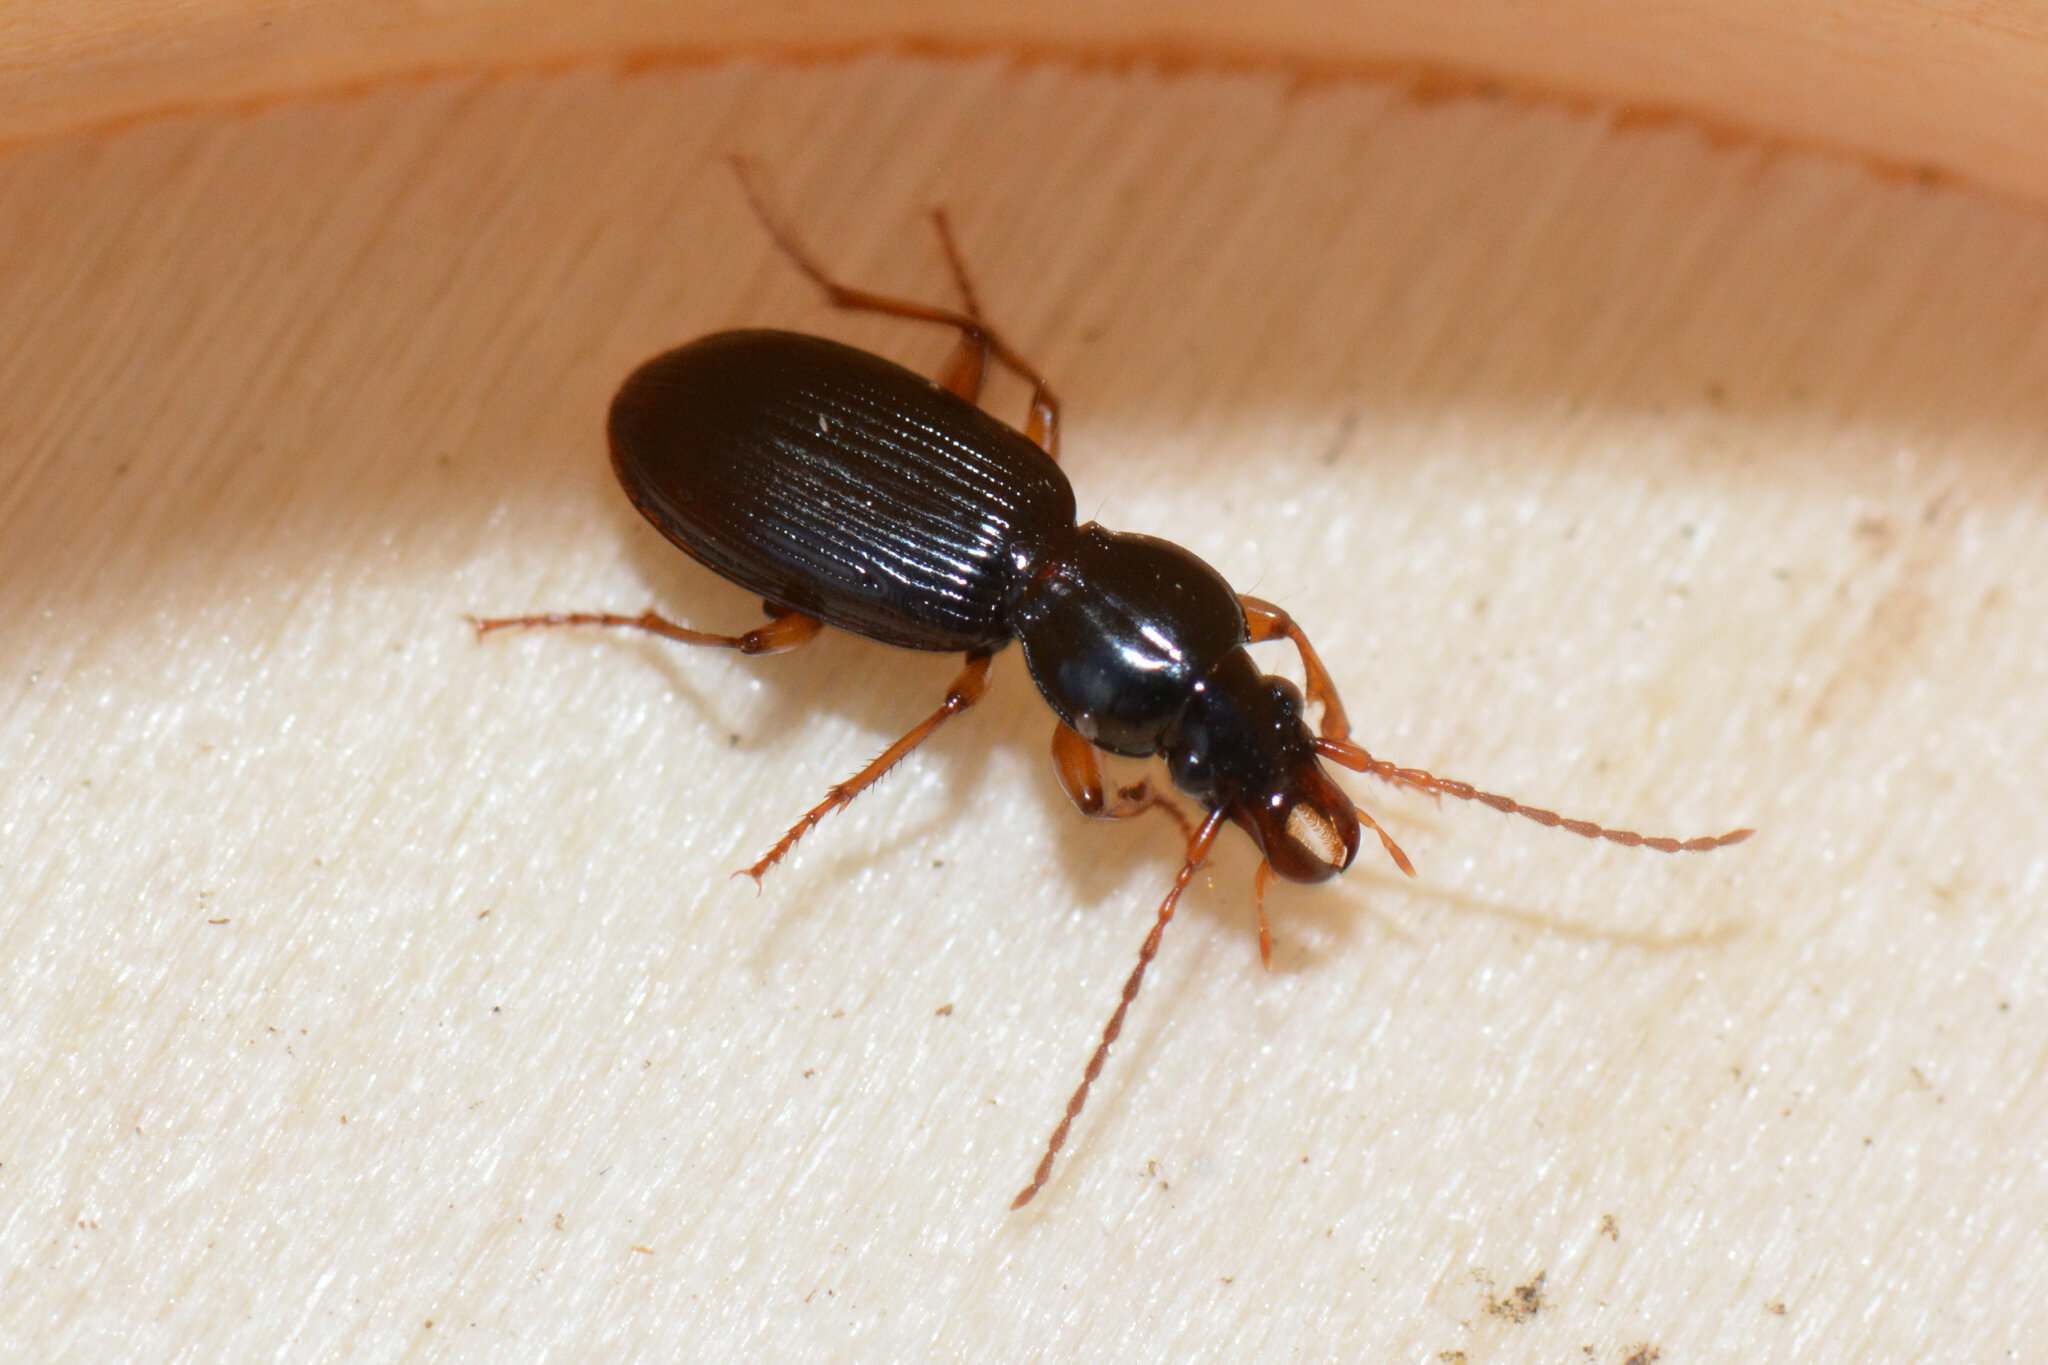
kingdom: Animalia
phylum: Arthropoda
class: Insecta
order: Coleoptera
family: Carabidae
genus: Stomis
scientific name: Stomis pumicatus
